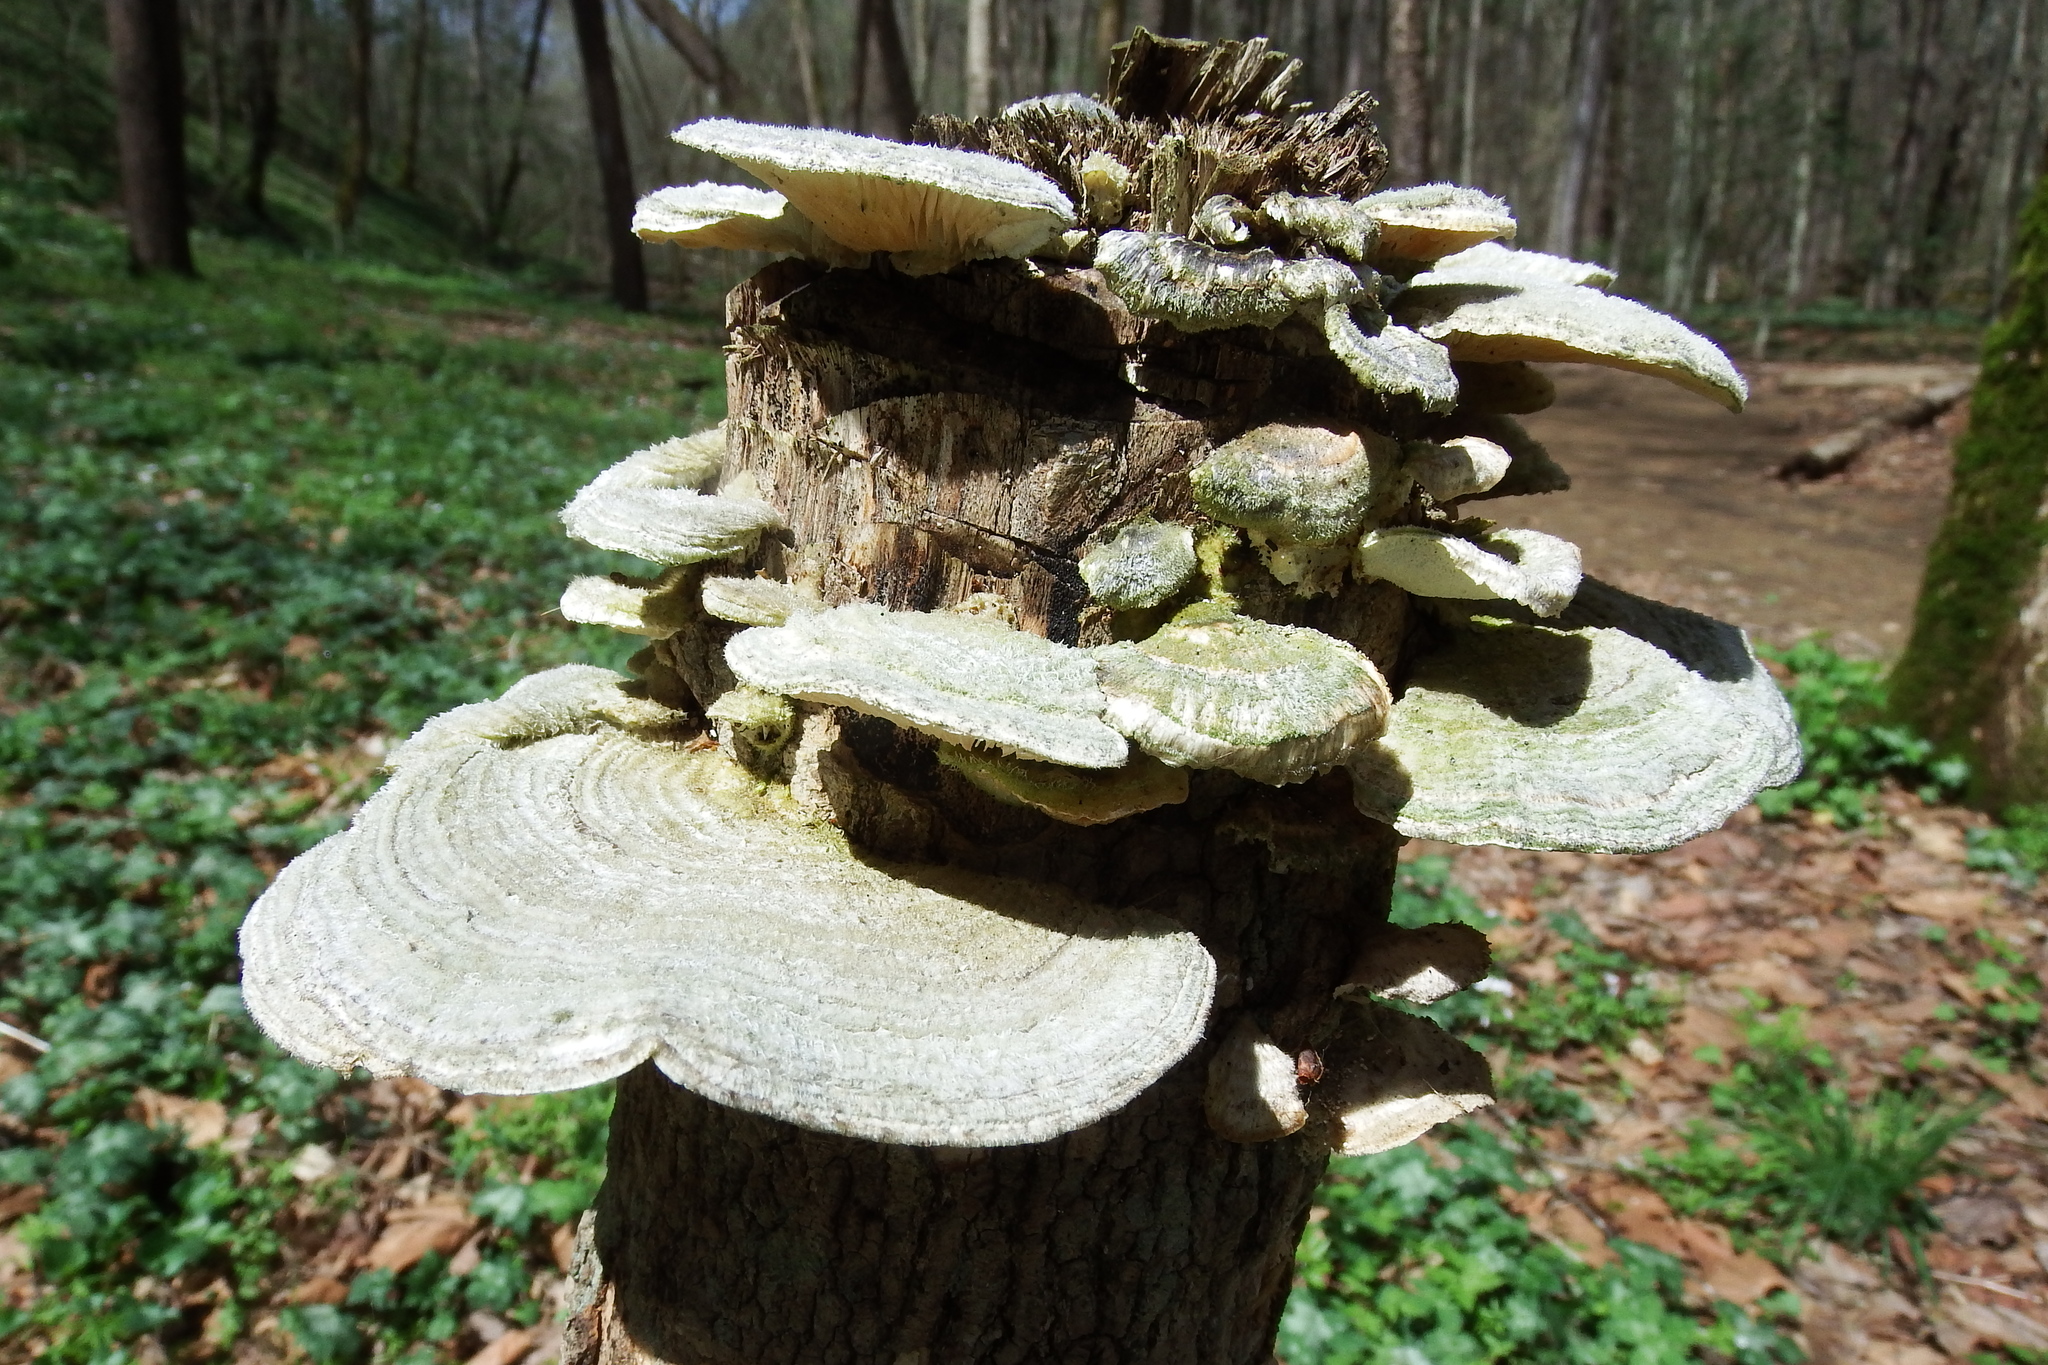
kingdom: Fungi
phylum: Basidiomycota
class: Agaricomycetes
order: Polyporales
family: Polyporaceae
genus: Lenzites
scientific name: Lenzites betulinus
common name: Birch mazegill
